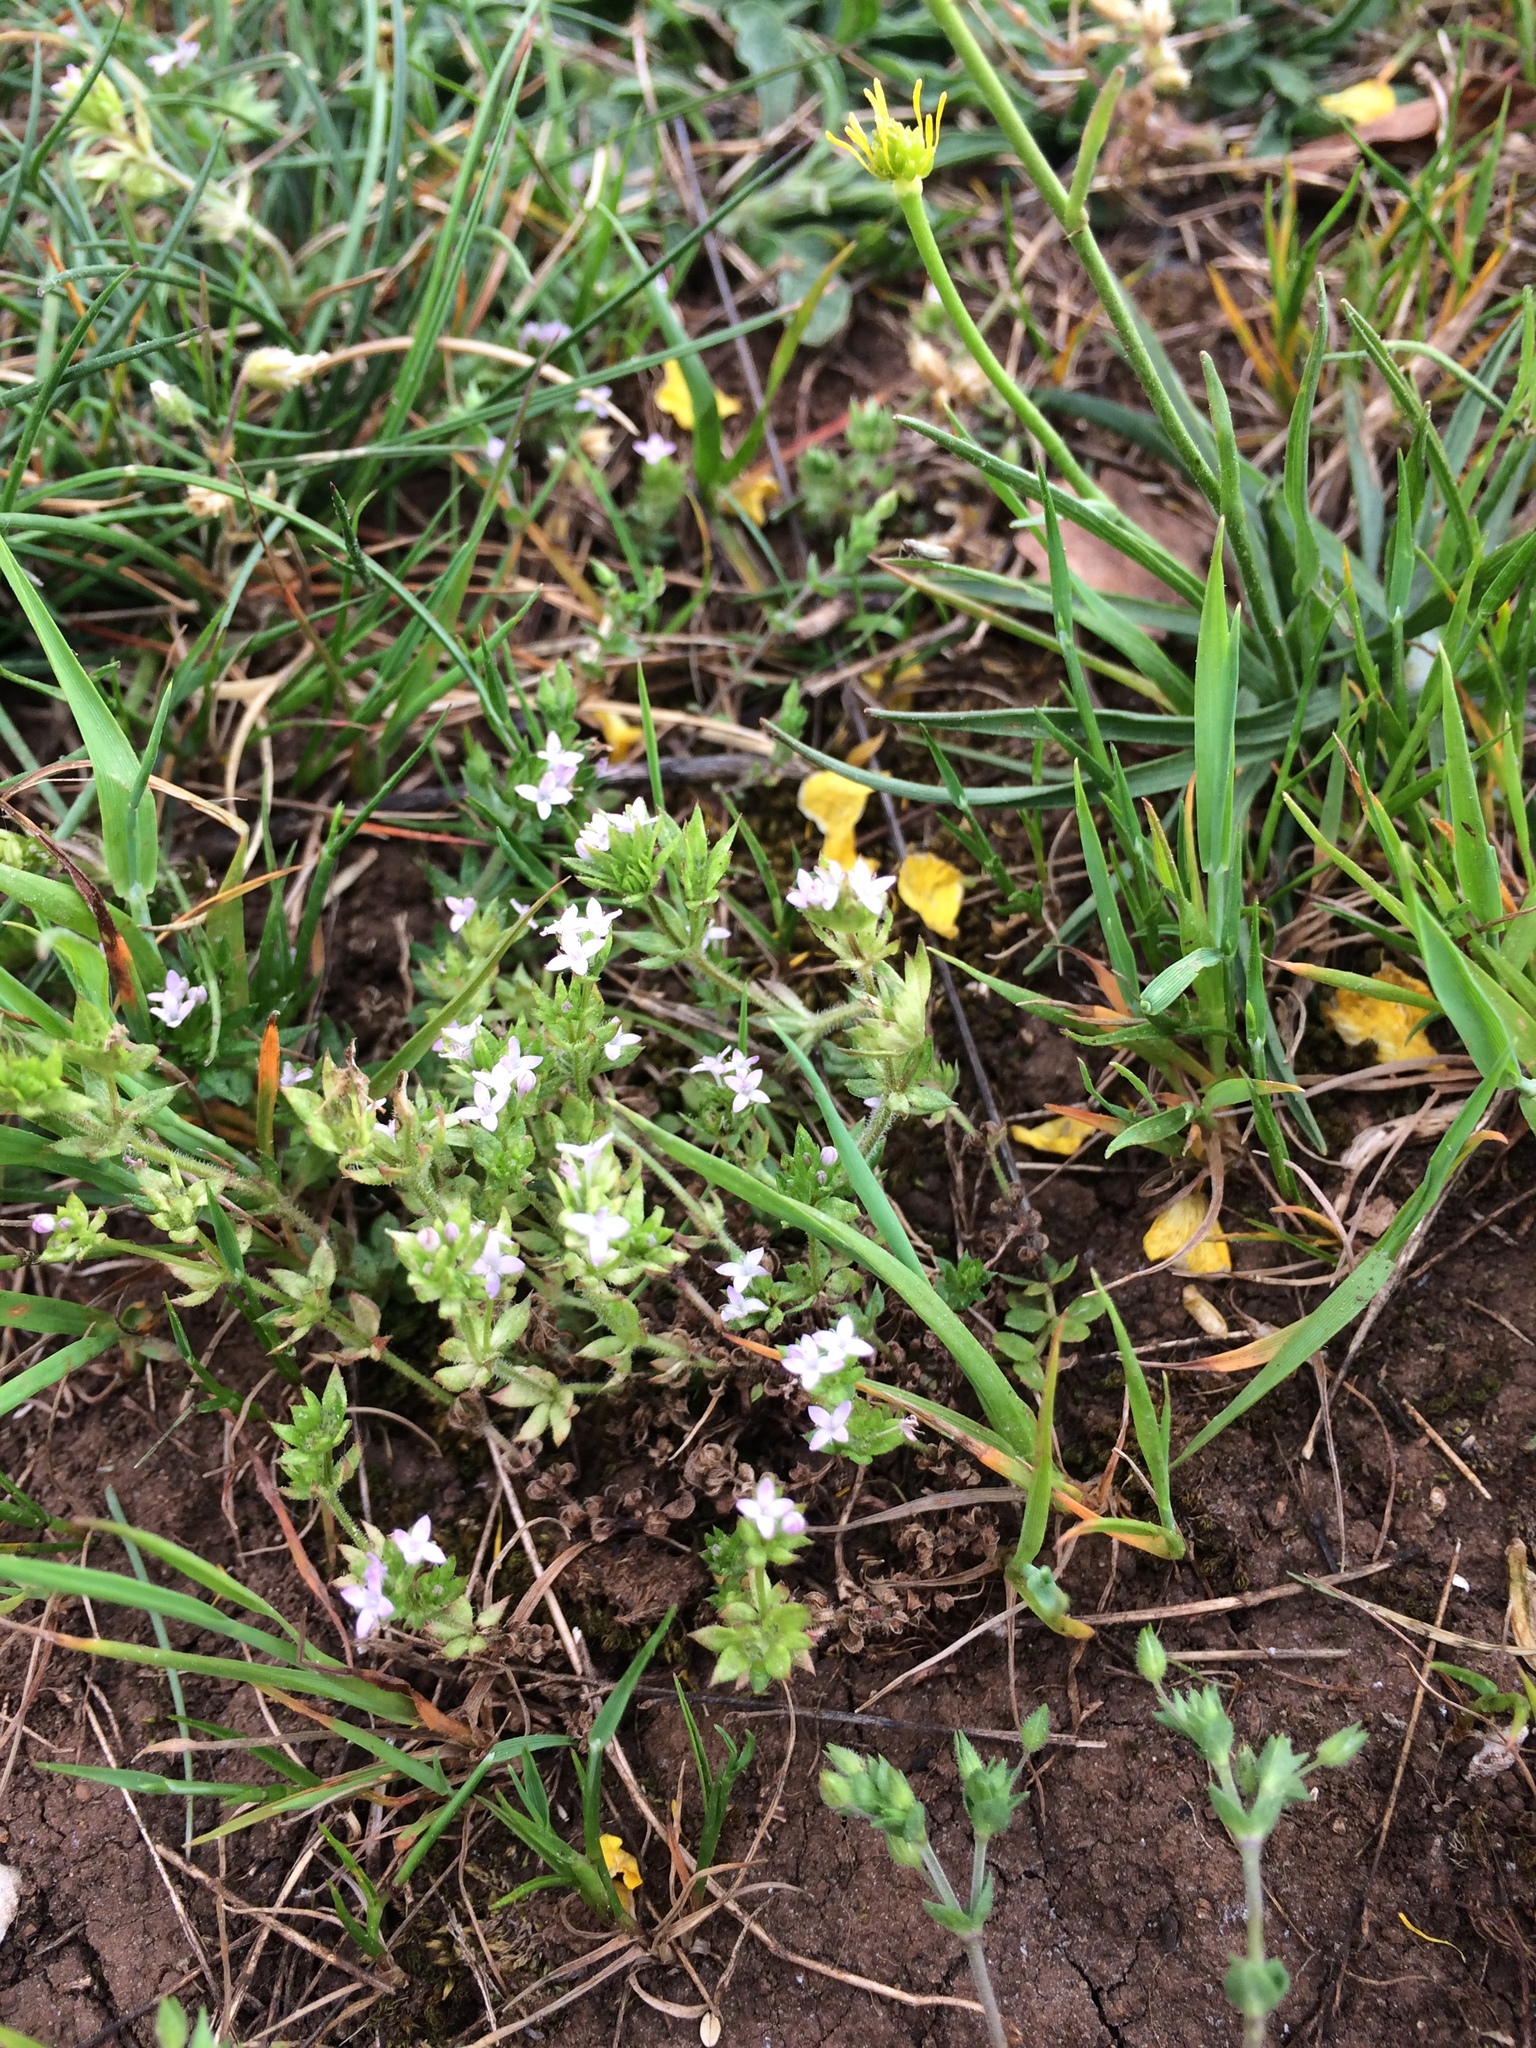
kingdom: Plantae
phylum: Tracheophyta
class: Magnoliopsida
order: Gentianales
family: Rubiaceae
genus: Sherardia
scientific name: Sherardia arvensis
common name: Field madder
